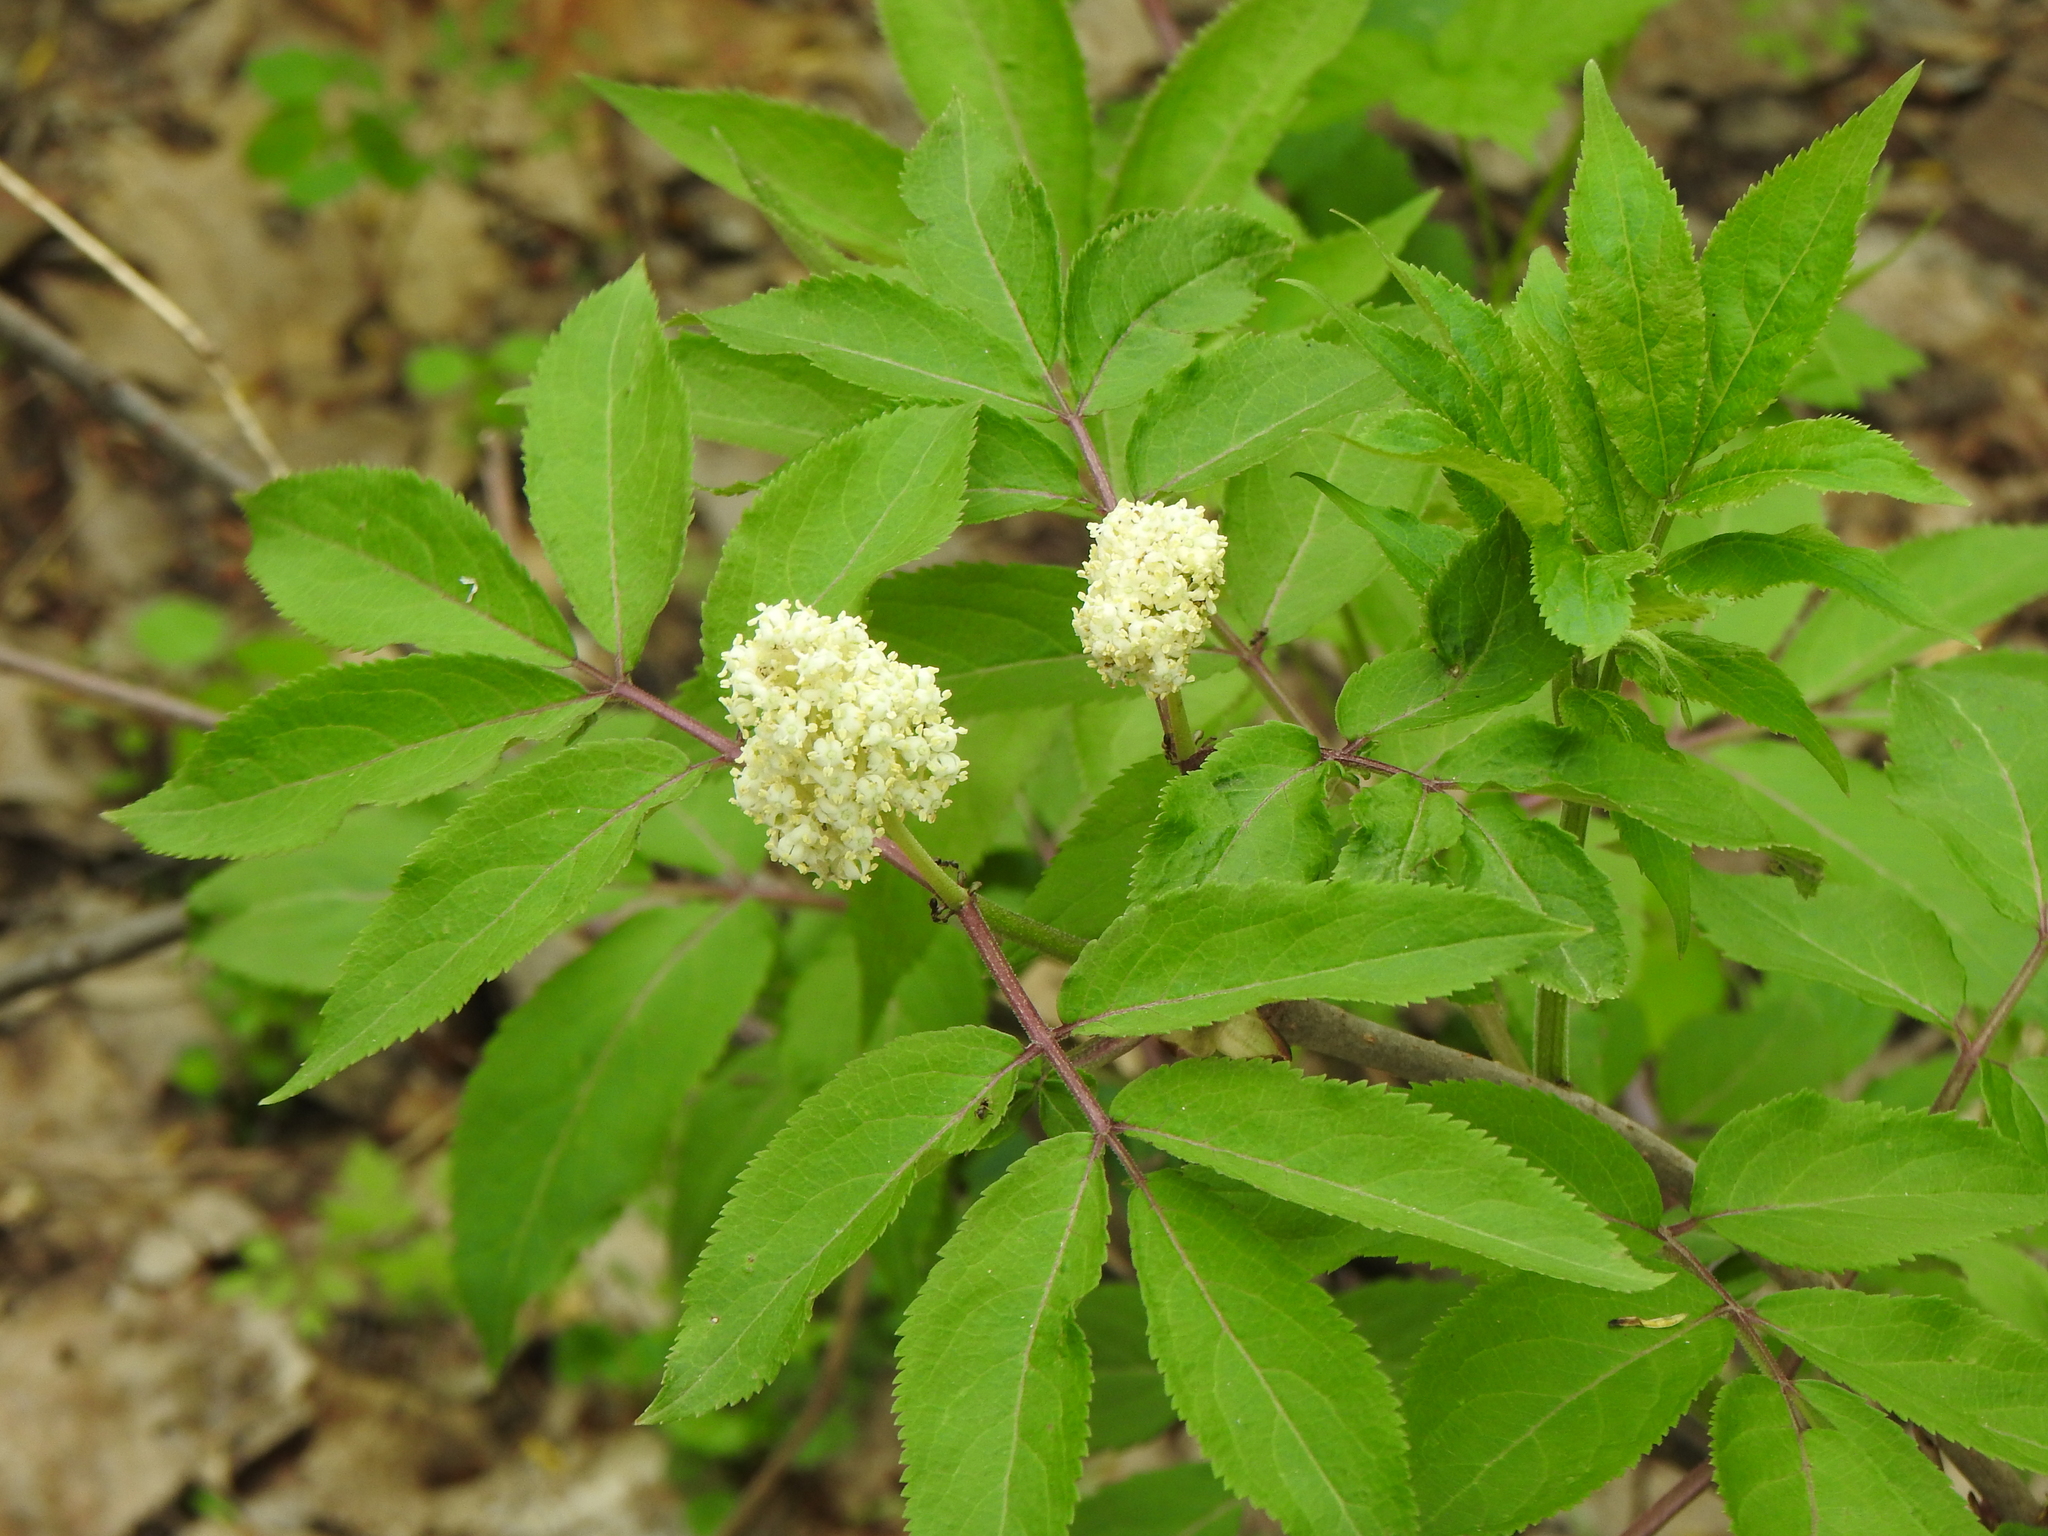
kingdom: Plantae
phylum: Tracheophyta
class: Magnoliopsida
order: Dipsacales
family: Viburnaceae
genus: Sambucus
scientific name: Sambucus racemosa
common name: Red-berried elder
